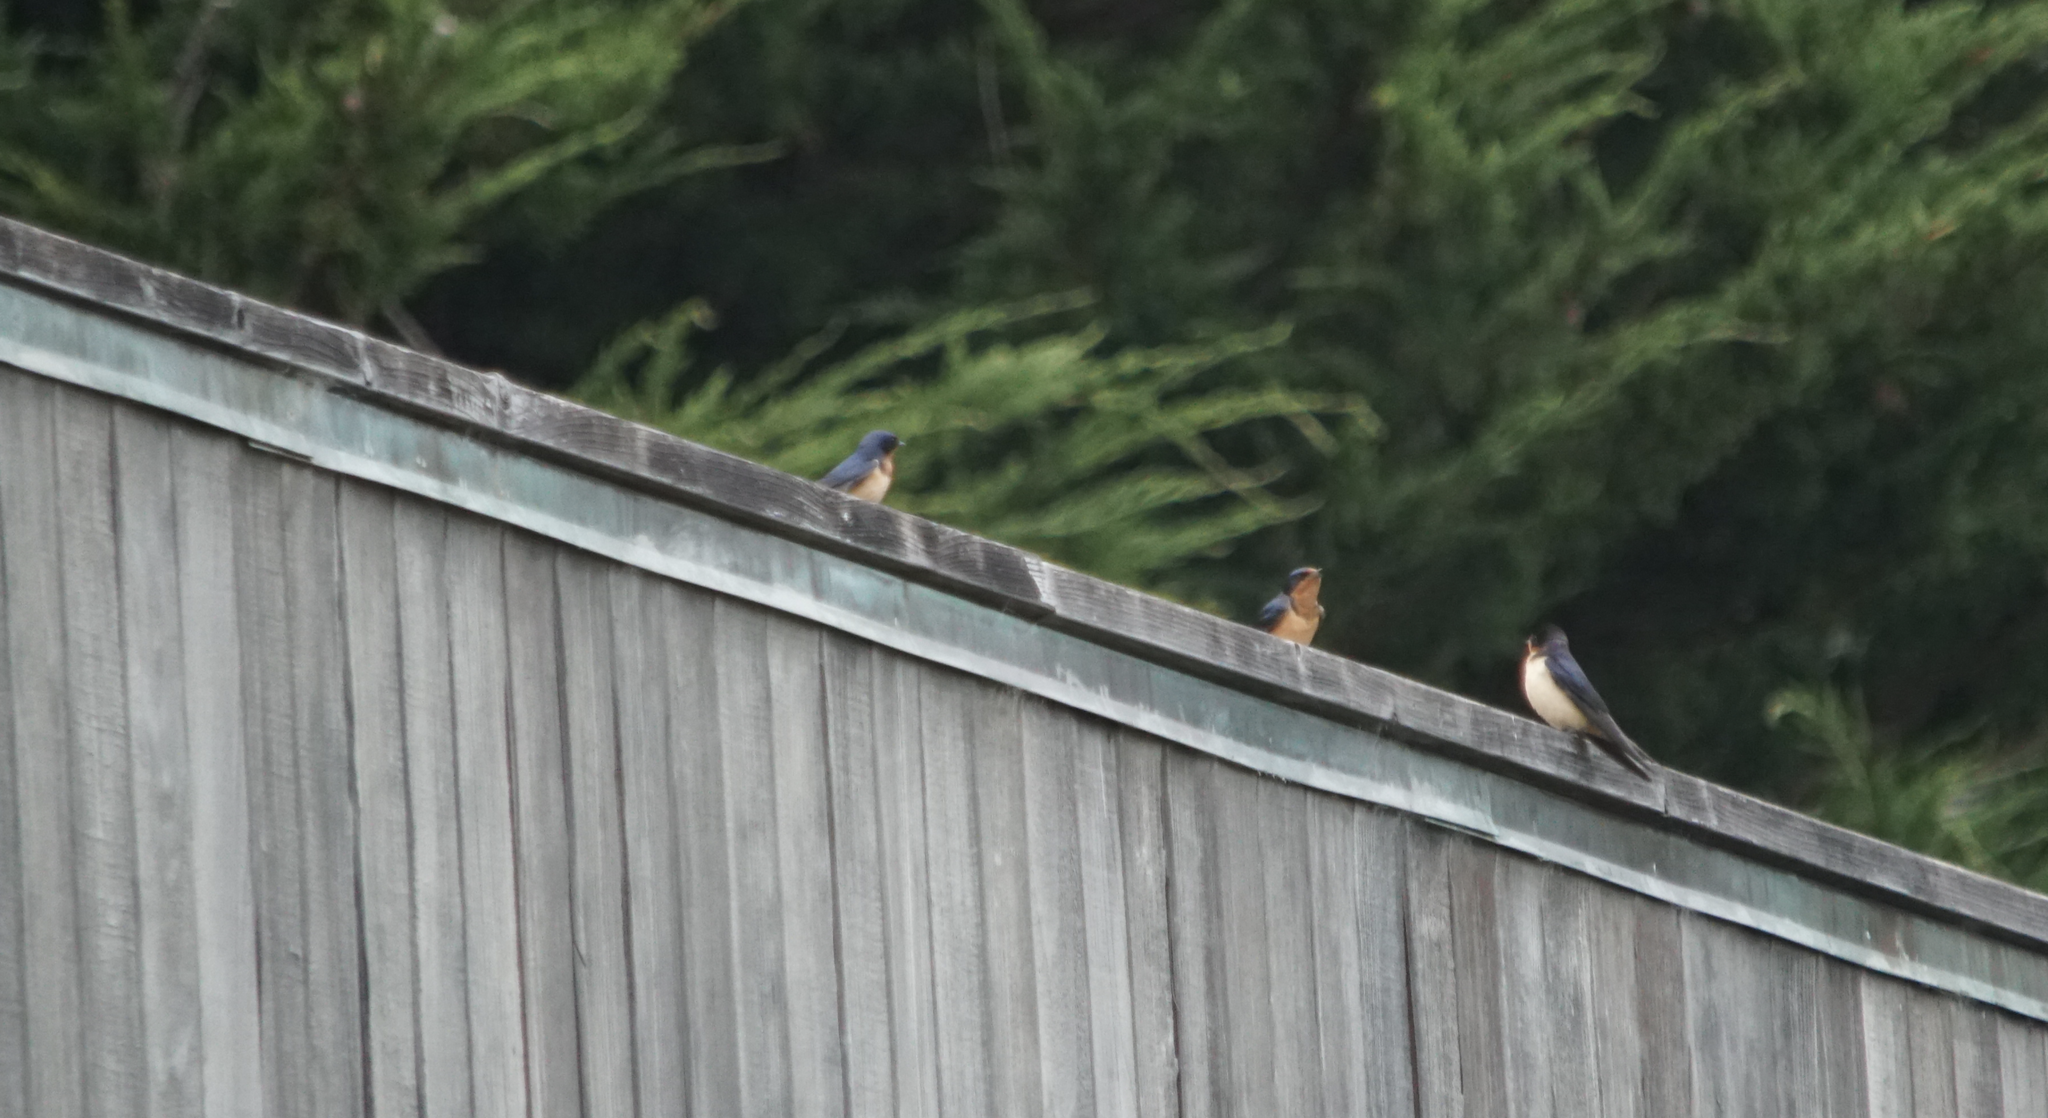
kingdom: Animalia
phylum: Chordata
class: Aves
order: Passeriformes
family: Hirundinidae
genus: Hirundo
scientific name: Hirundo rustica
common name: Barn swallow
